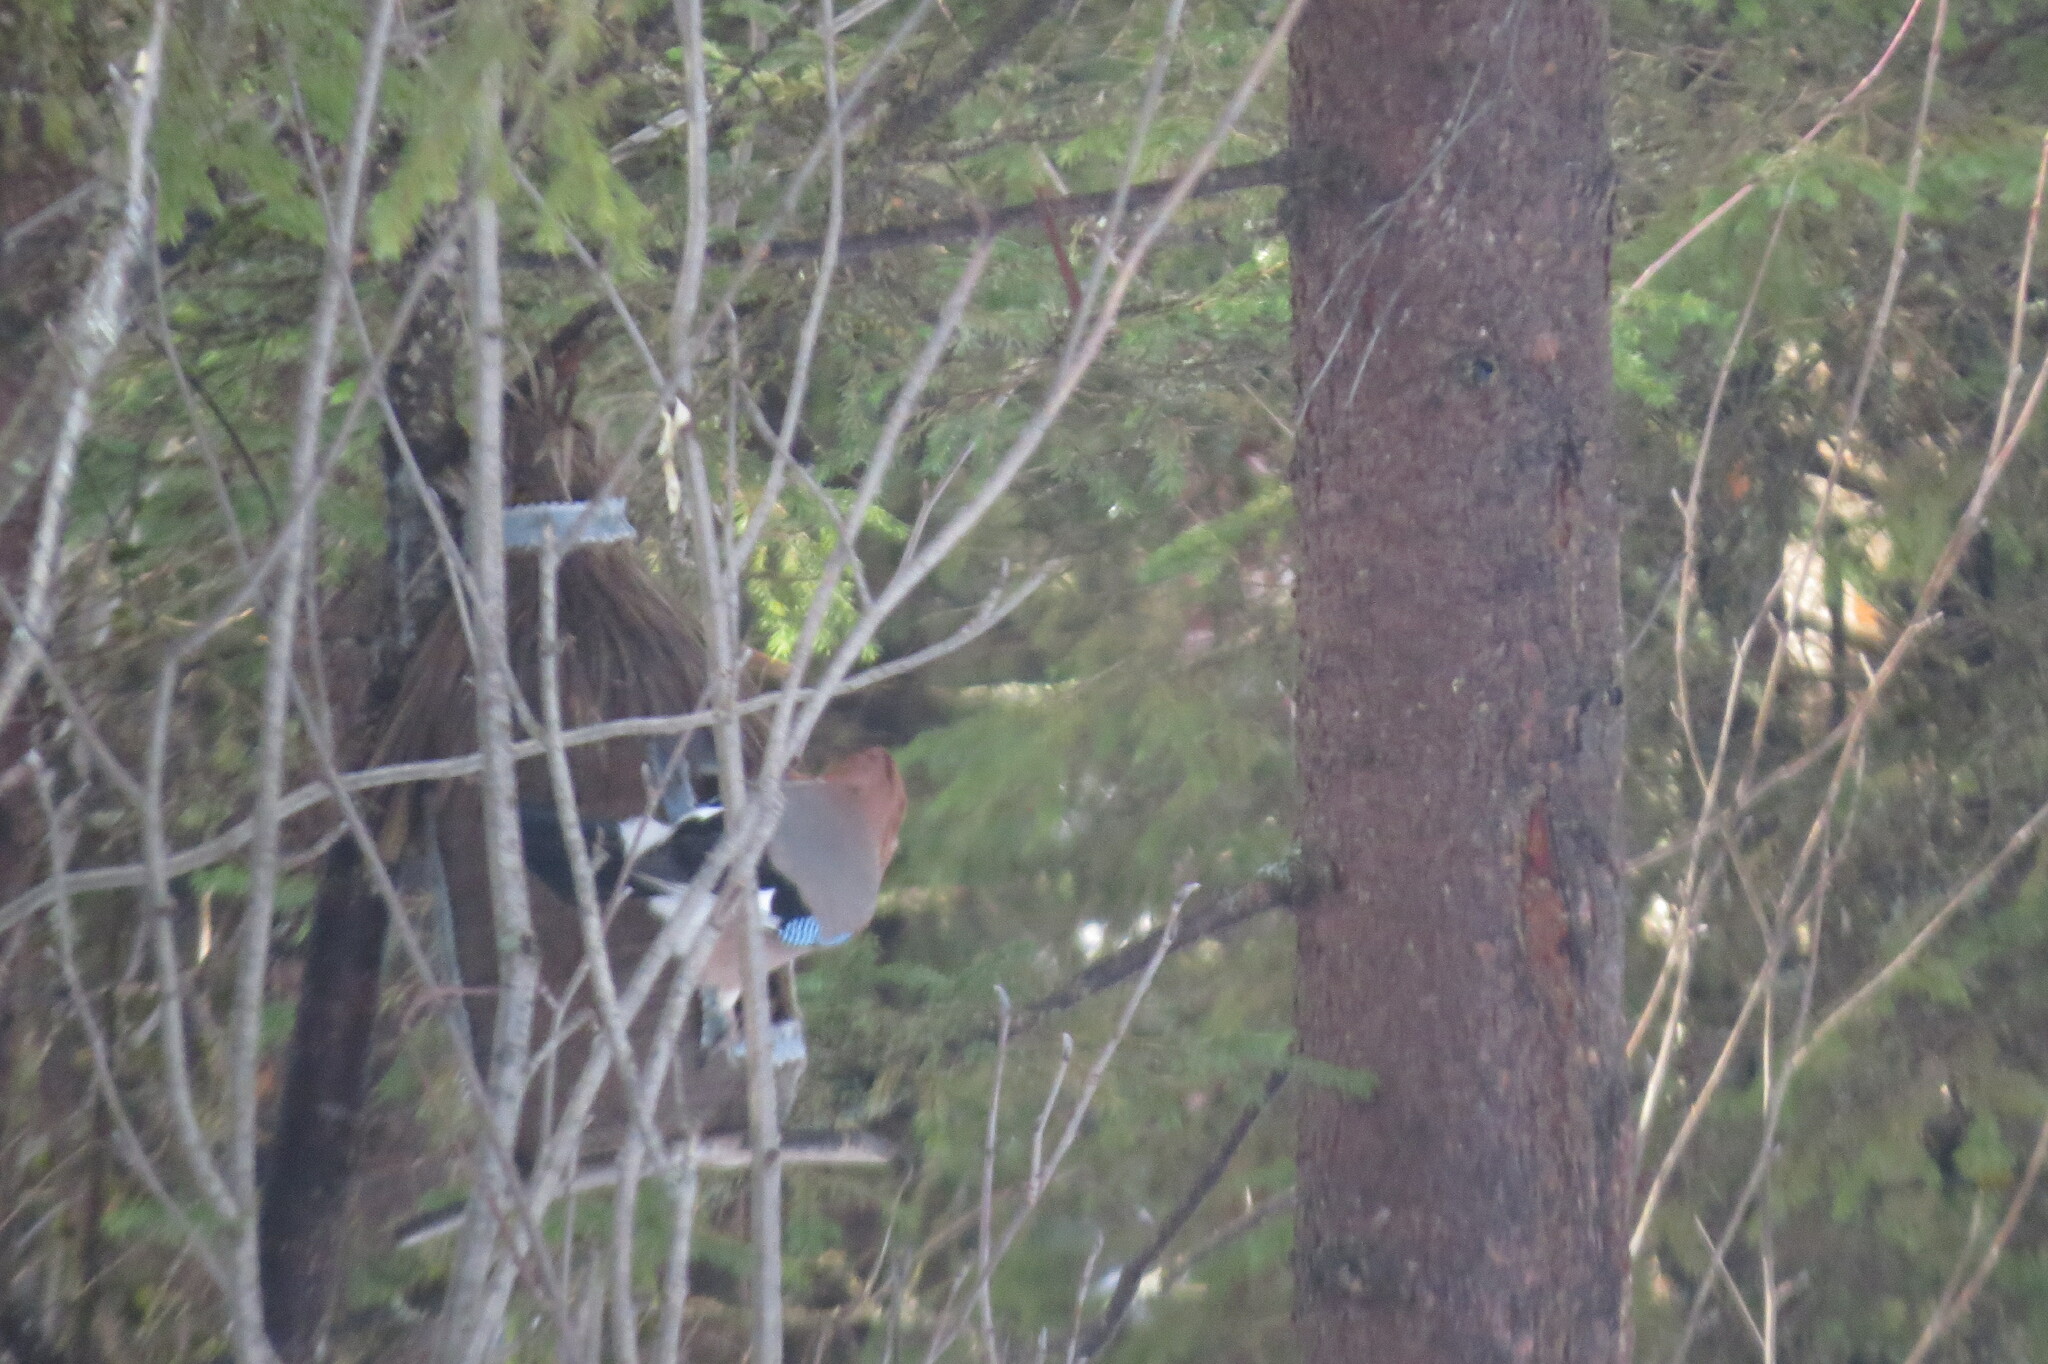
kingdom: Animalia
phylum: Chordata
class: Aves
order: Passeriformes
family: Corvidae
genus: Garrulus
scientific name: Garrulus glandarius
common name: Eurasian jay
